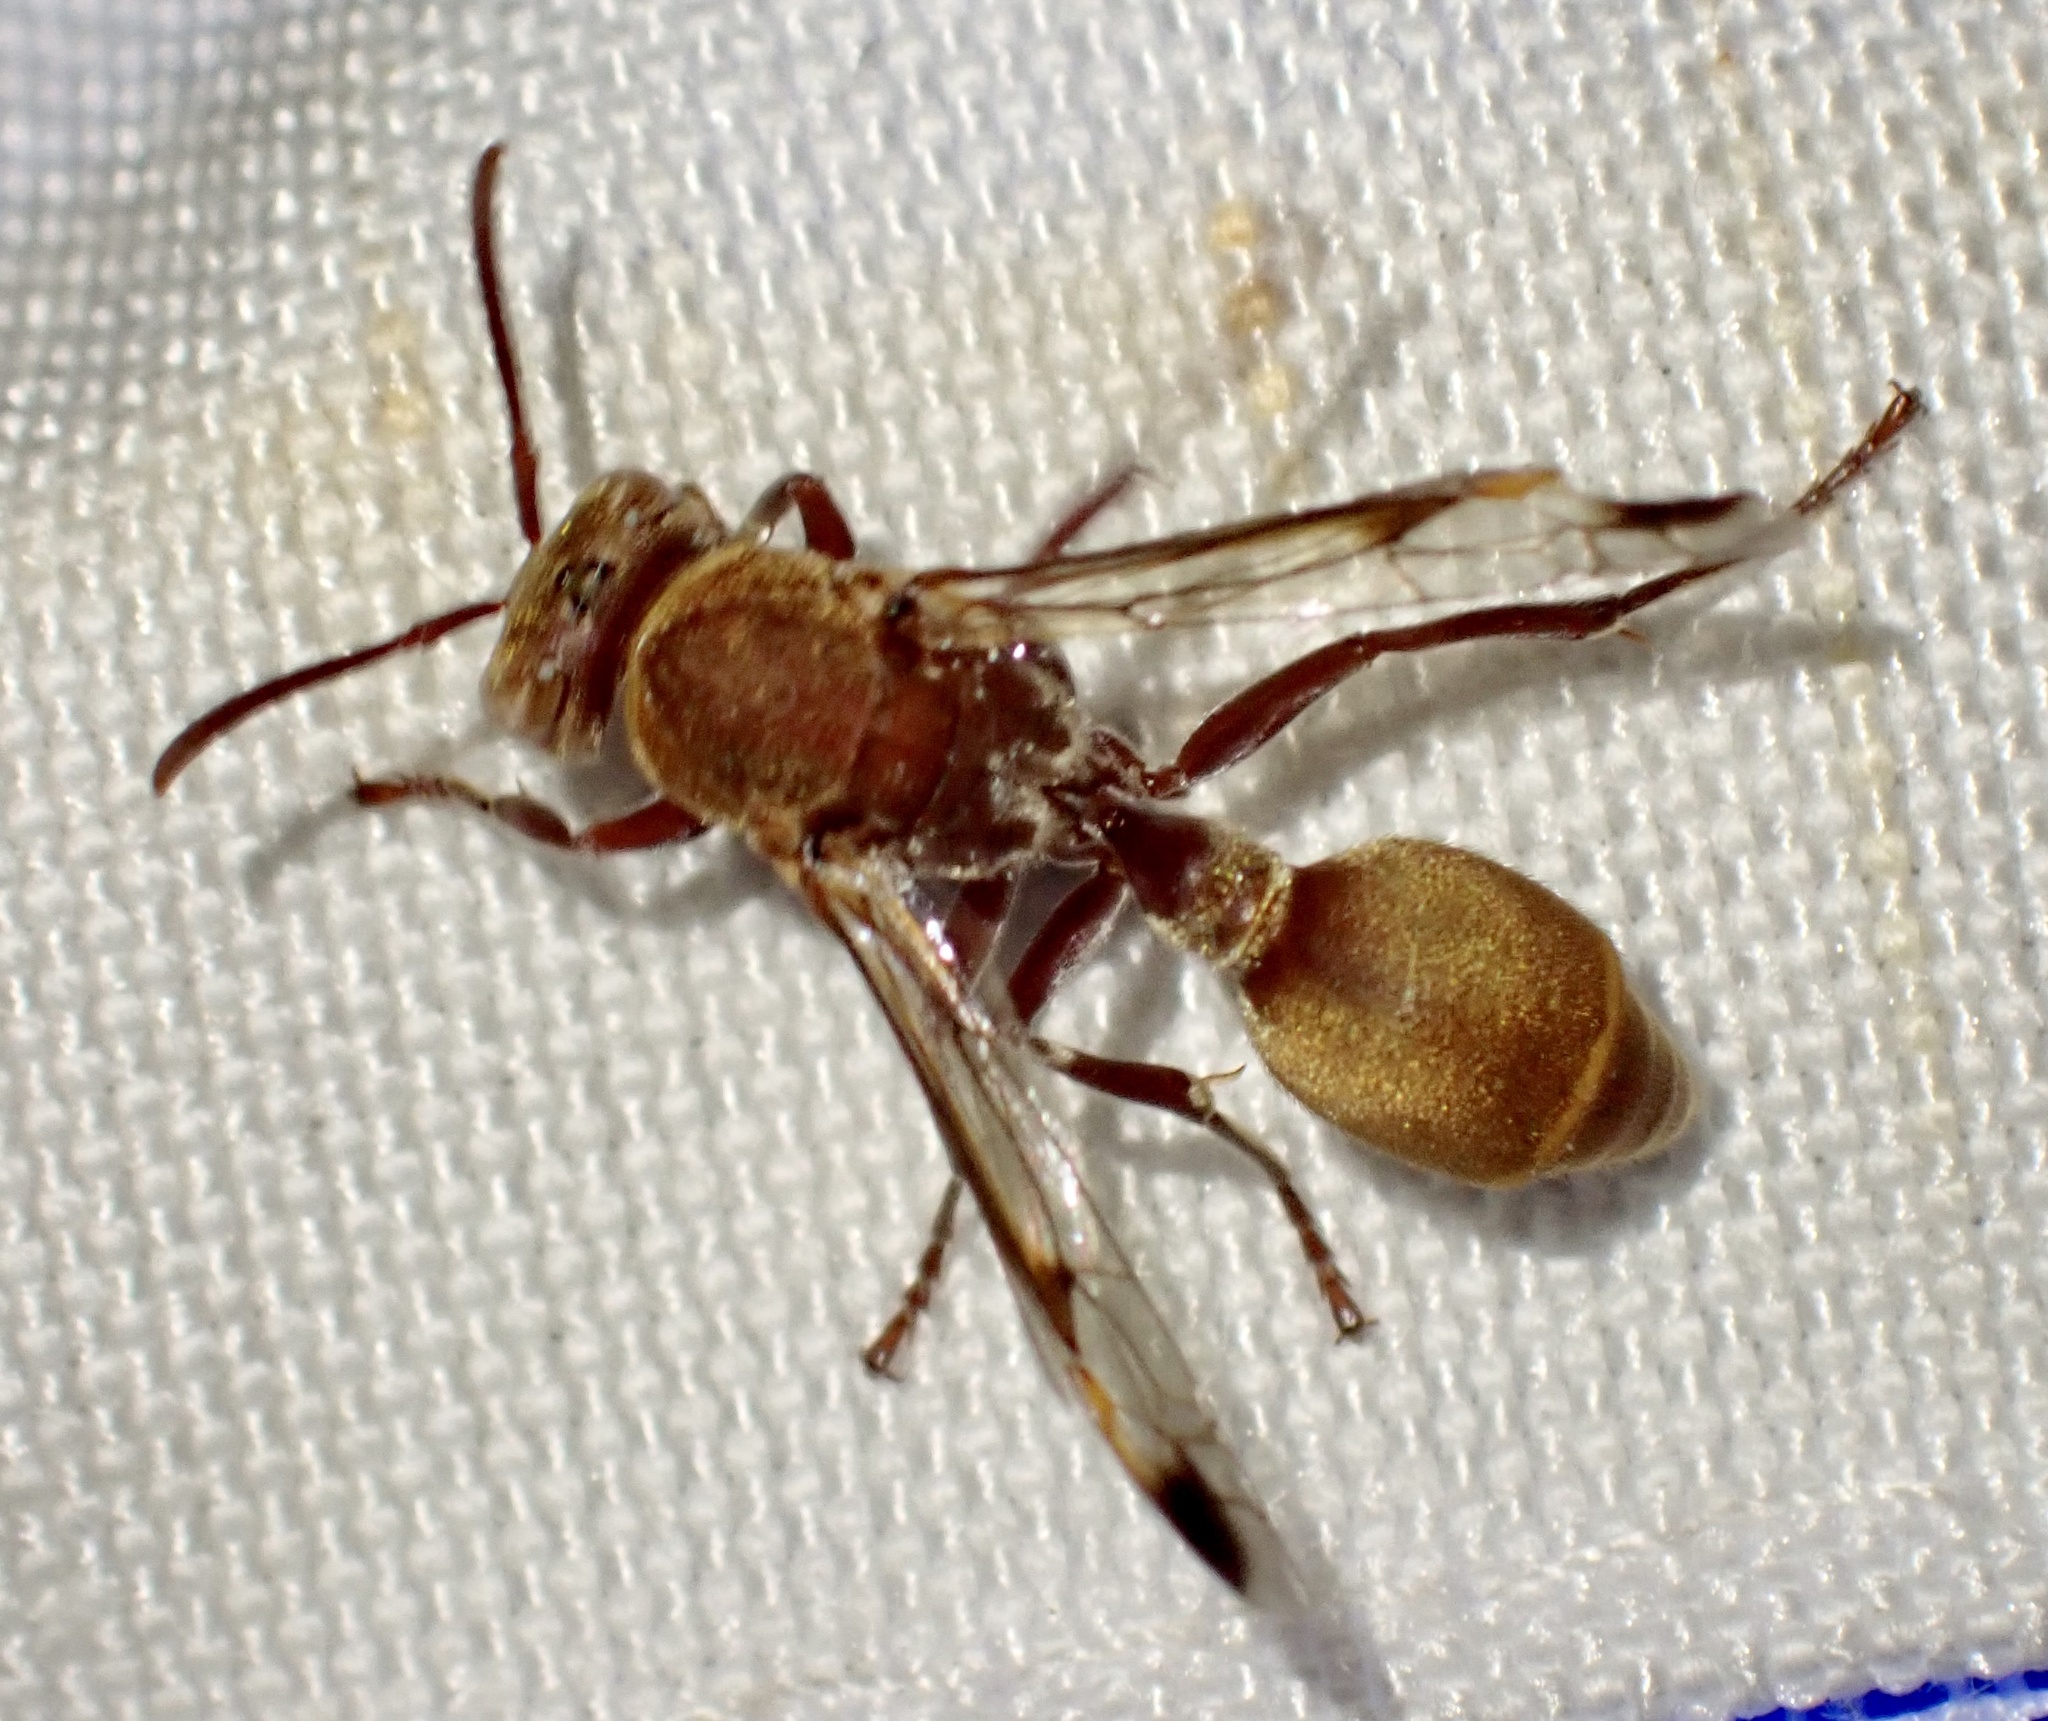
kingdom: Animalia
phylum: Arthropoda
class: Insecta
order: Hymenoptera
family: Vespidae
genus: Ropalidia
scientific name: Ropalidia distigma
